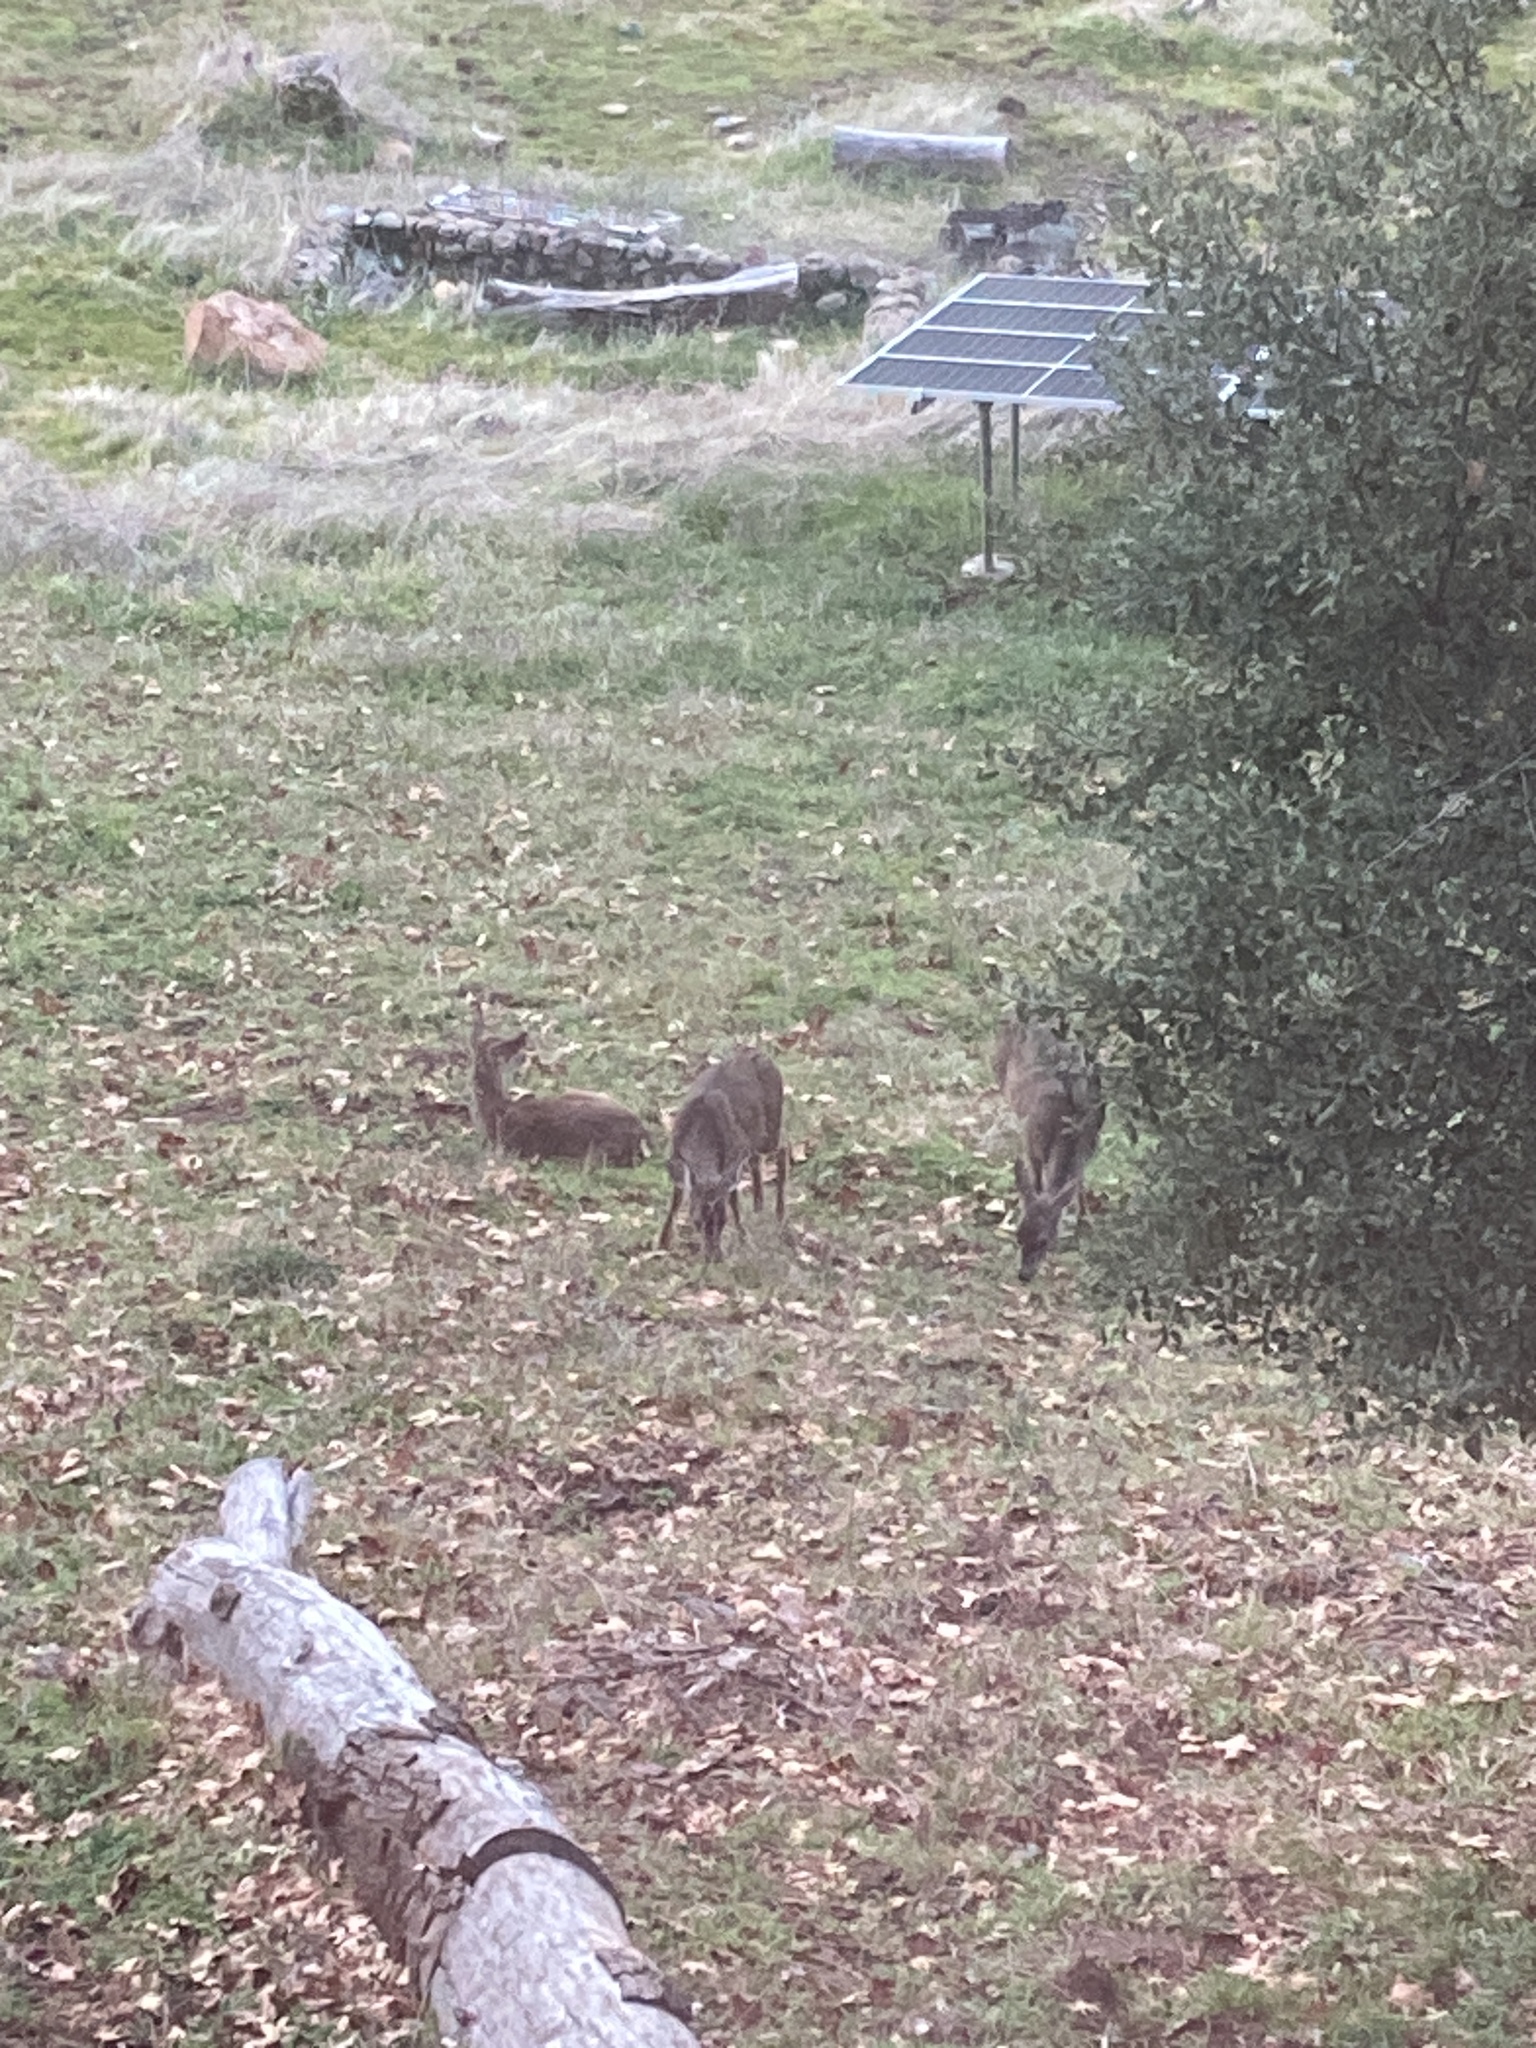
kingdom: Animalia
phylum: Chordata
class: Mammalia
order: Artiodactyla
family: Cervidae
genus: Odocoileus
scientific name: Odocoileus hemionus
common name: Mule deer
